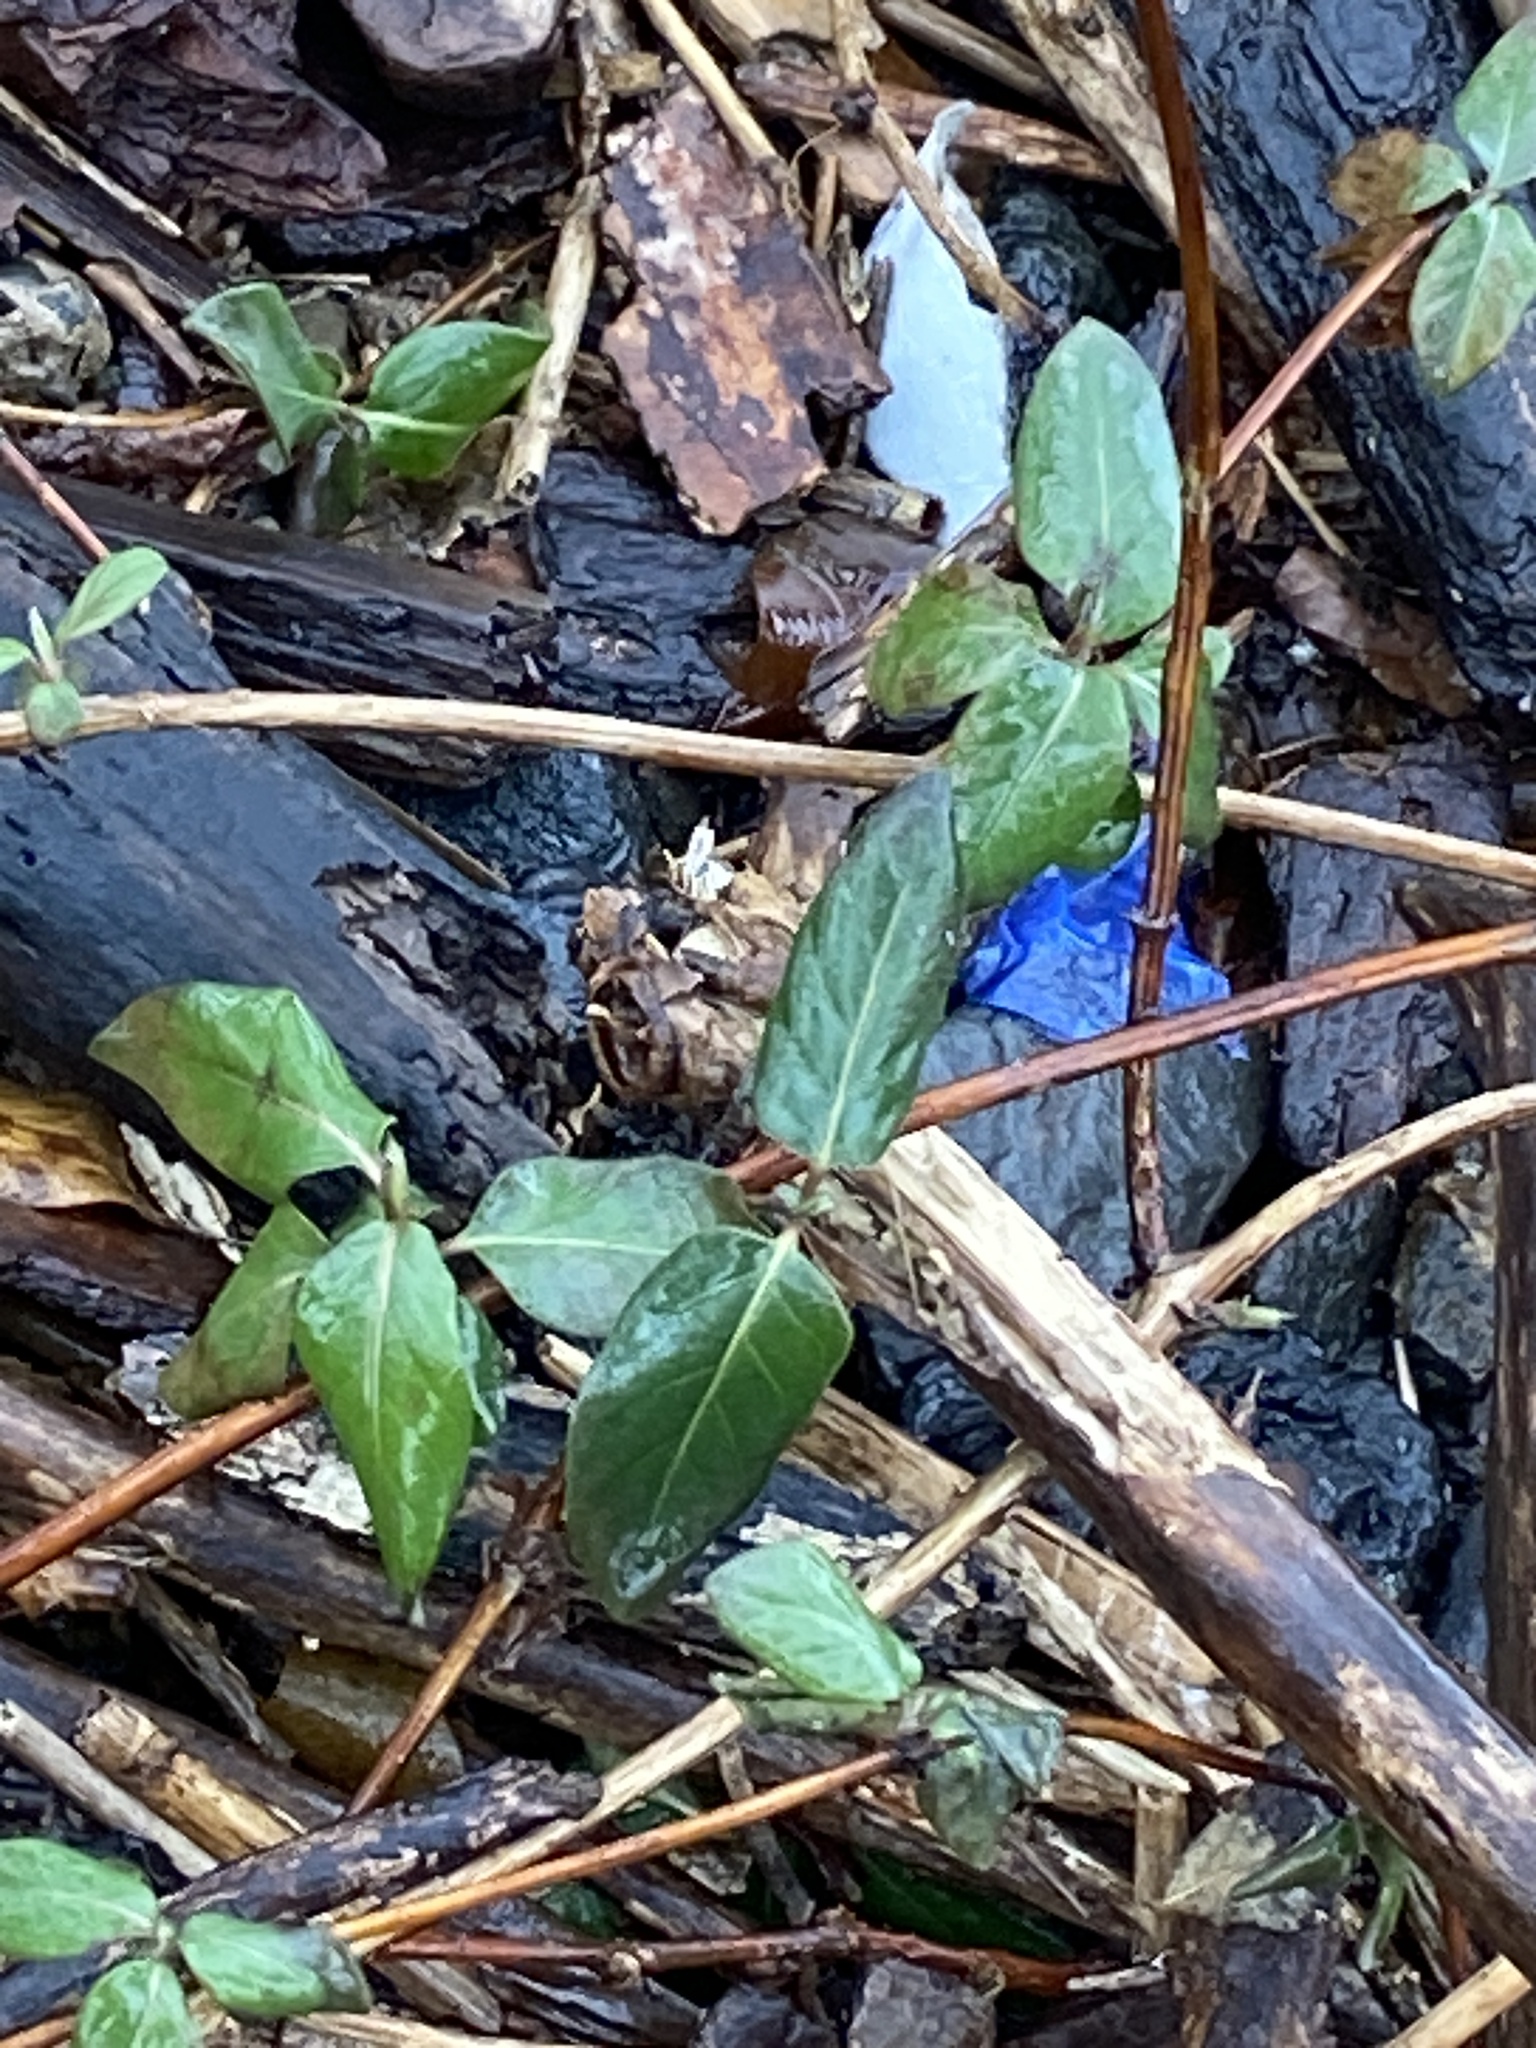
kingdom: Plantae
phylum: Tracheophyta
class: Magnoliopsida
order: Dipsacales
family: Caprifoliaceae
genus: Lonicera
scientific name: Lonicera japonica
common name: Japanese honeysuckle
